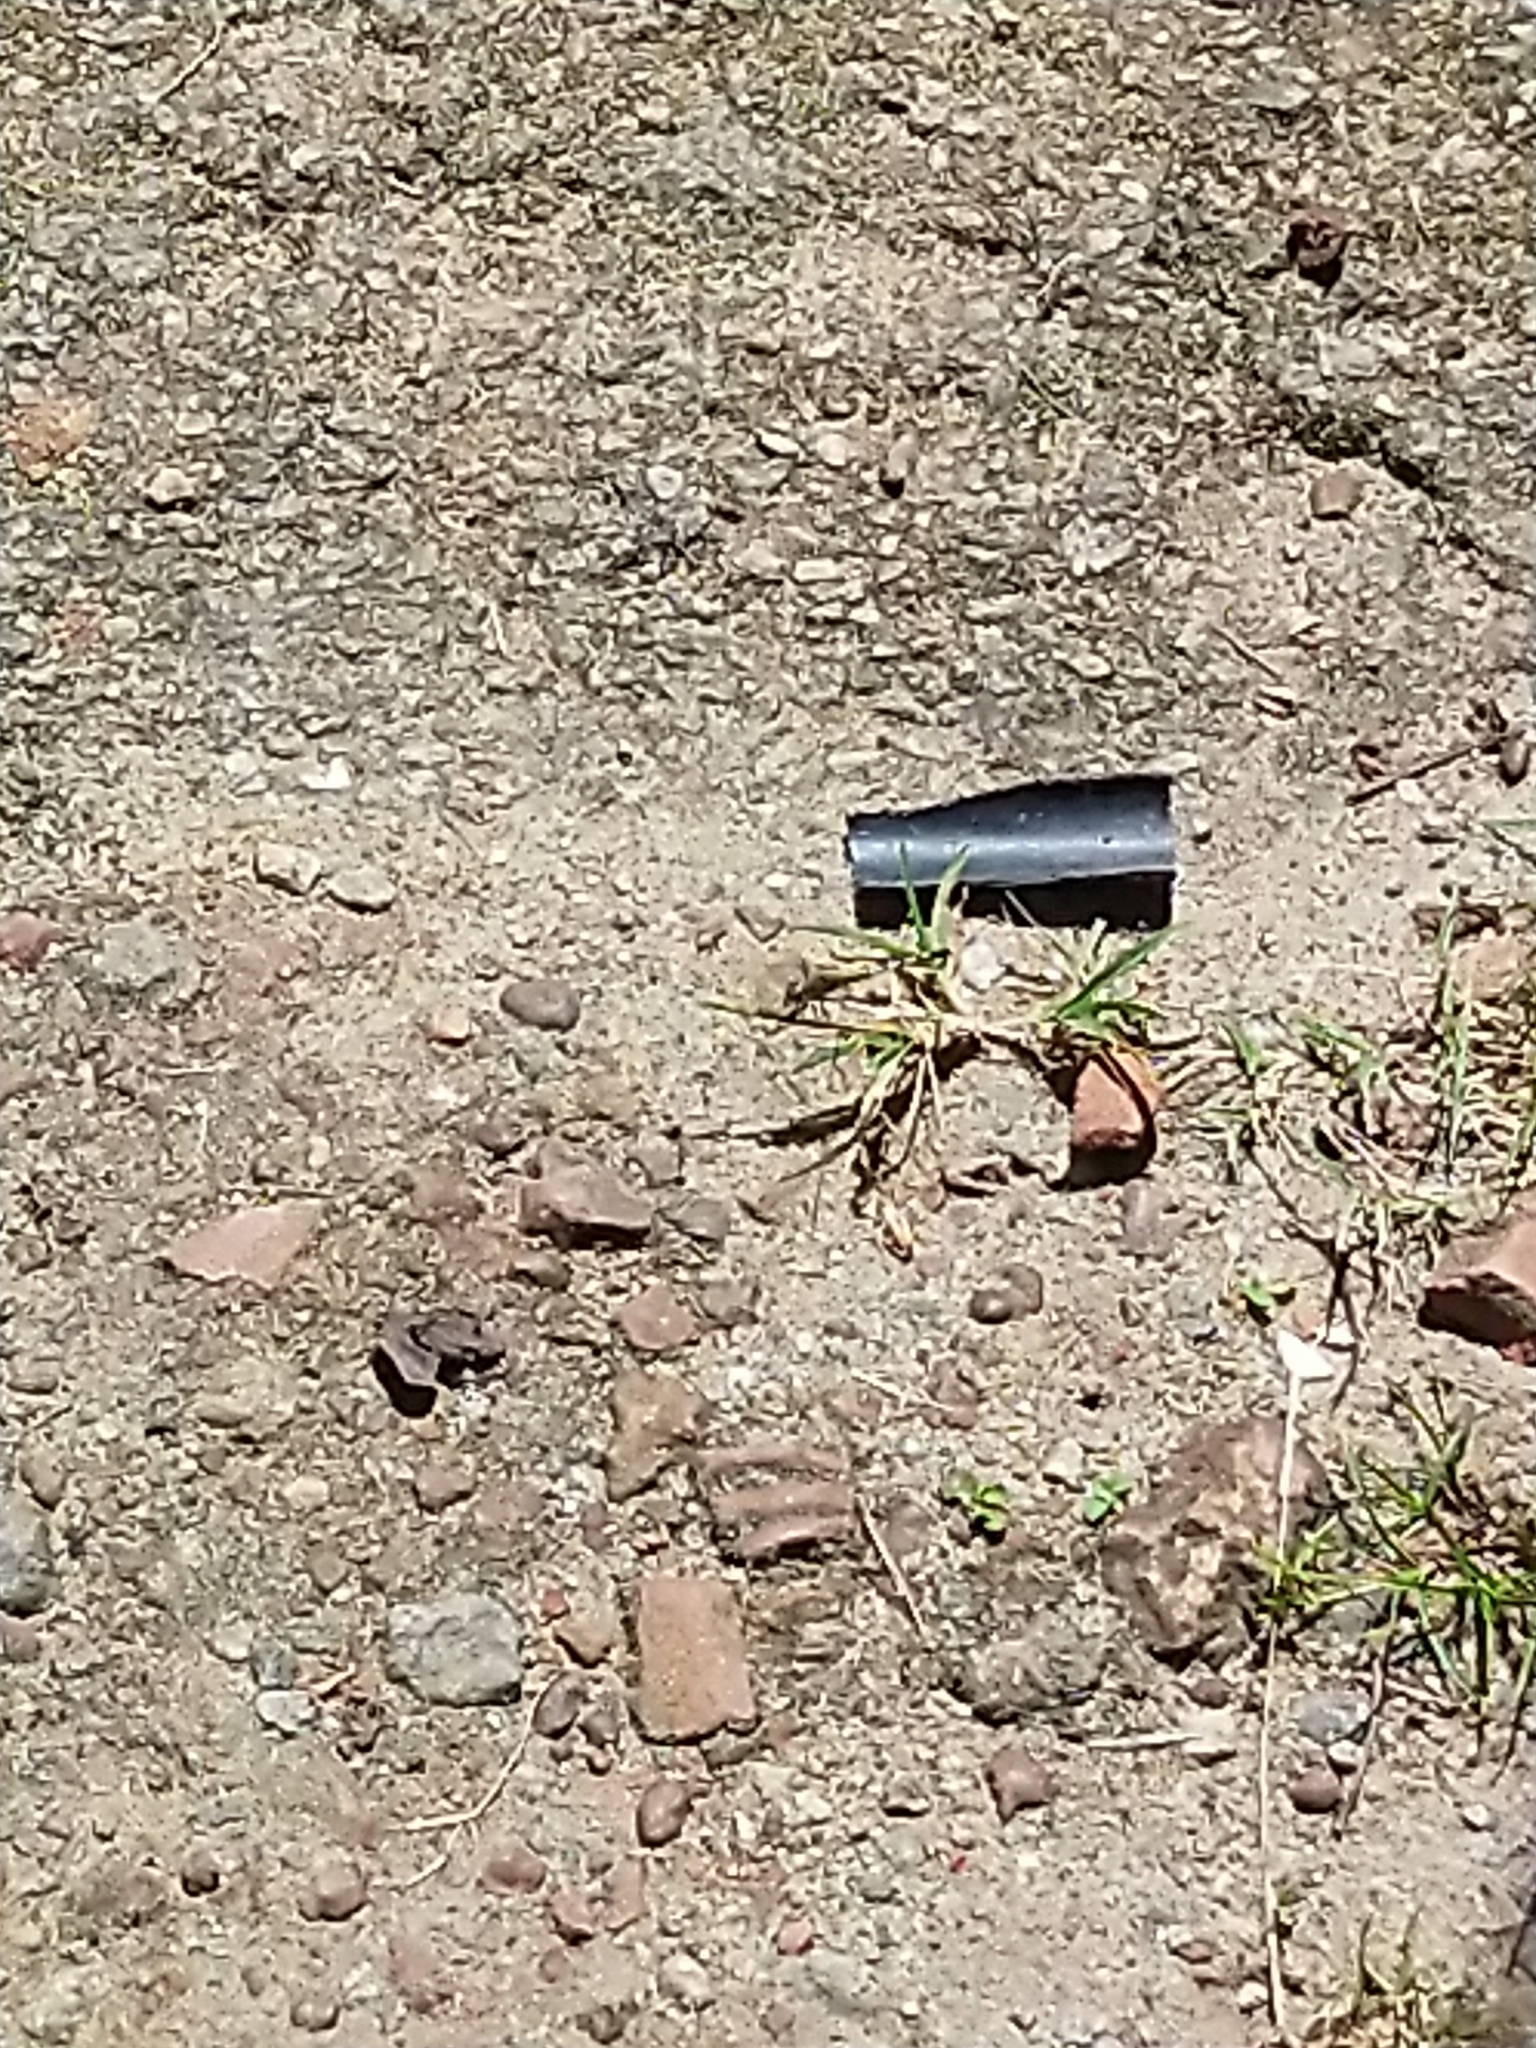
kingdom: Animalia
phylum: Arthropoda
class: Insecta
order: Odonata
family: Libellulidae
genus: Diplacodes
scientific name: Diplacodes trivialis
